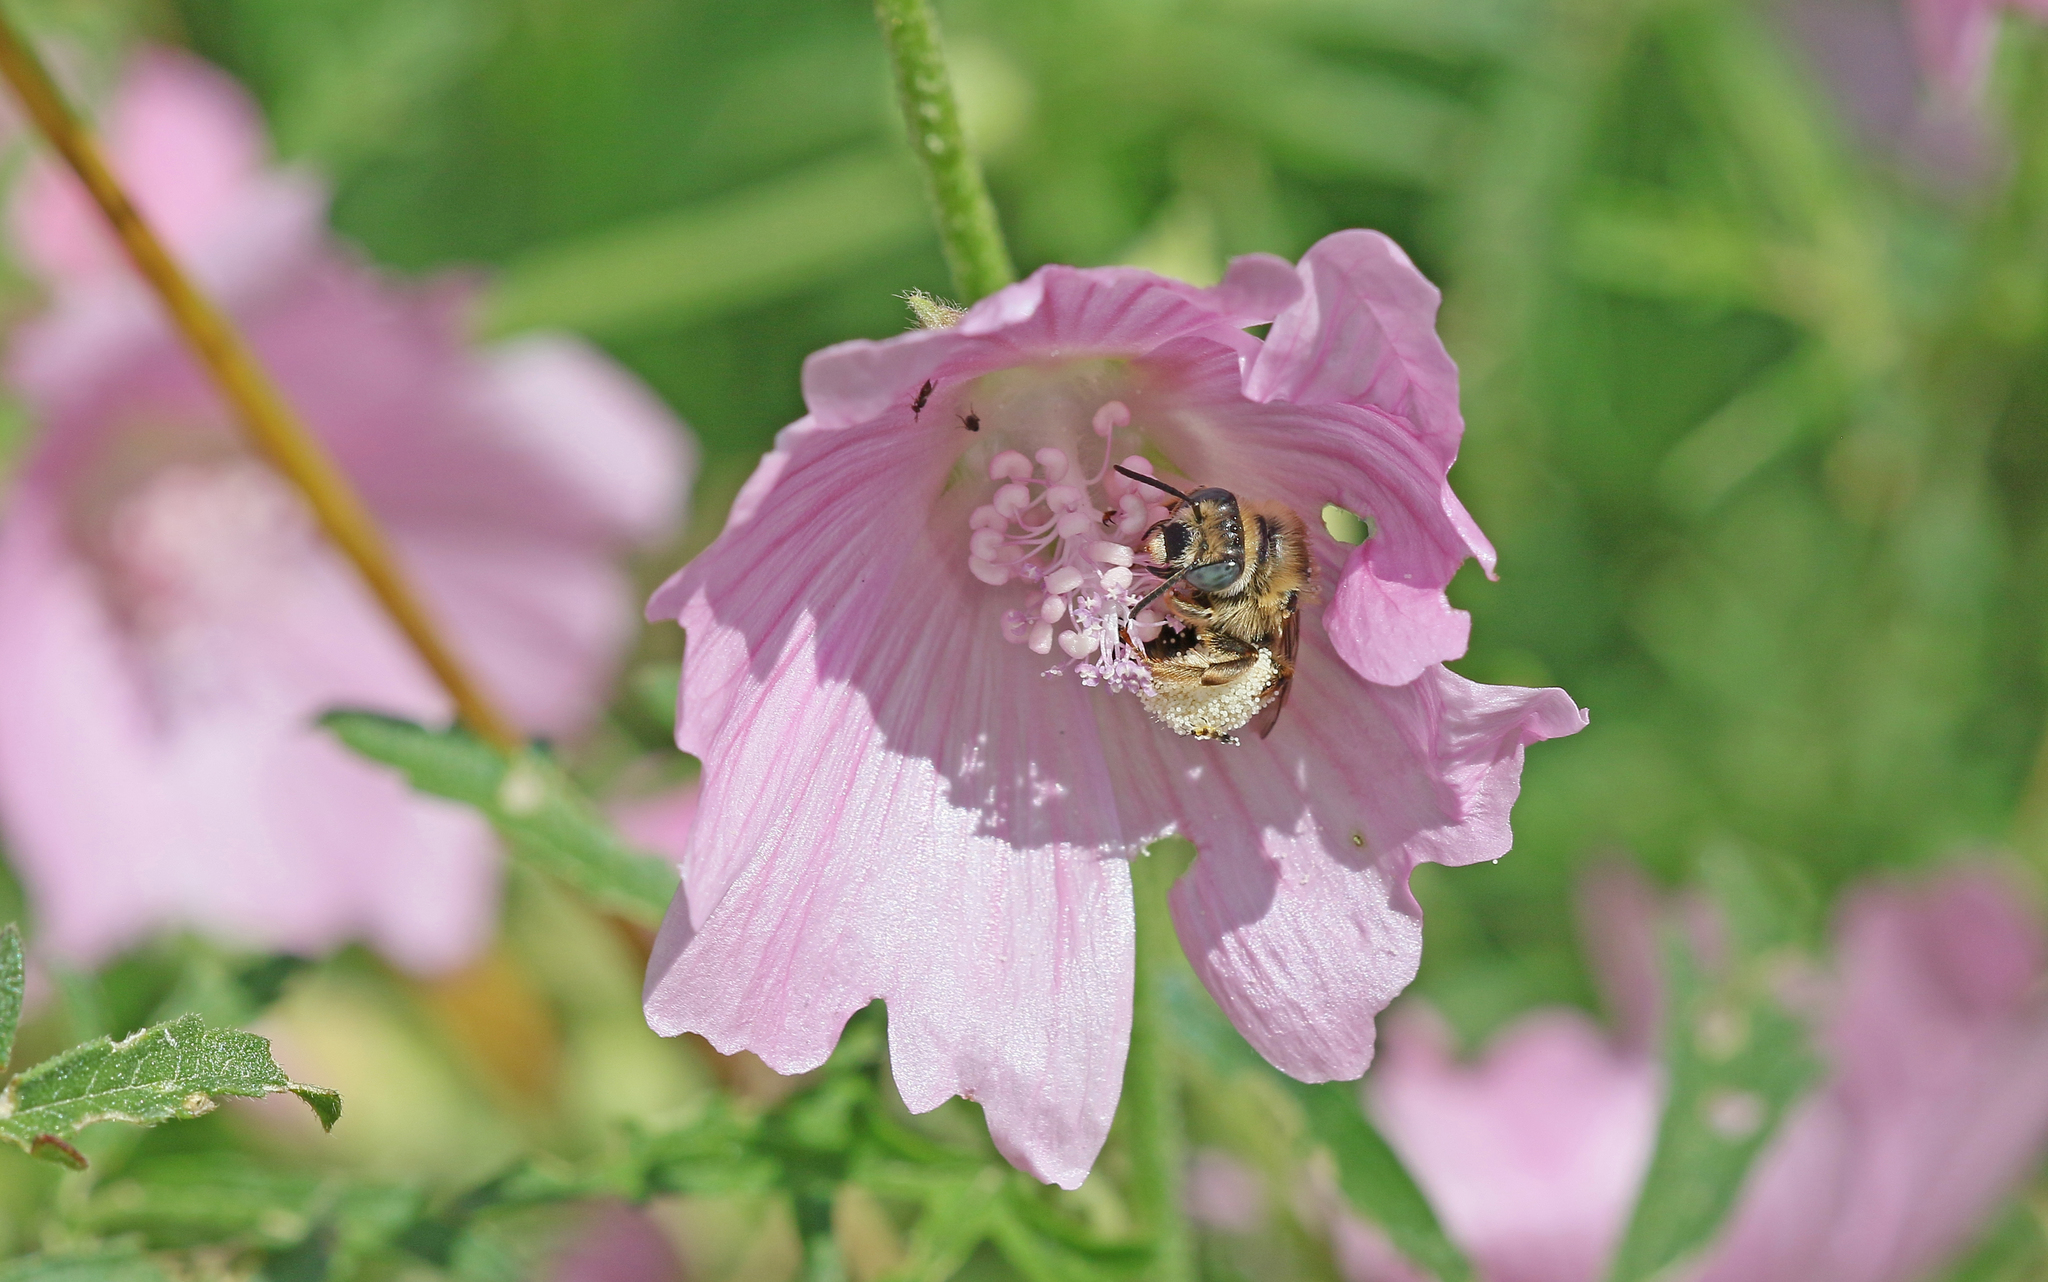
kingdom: Animalia
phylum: Arthropoda
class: Insecta
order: Hymenoptera
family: Apidae
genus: Tetralonia
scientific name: Tetralonia malvae
